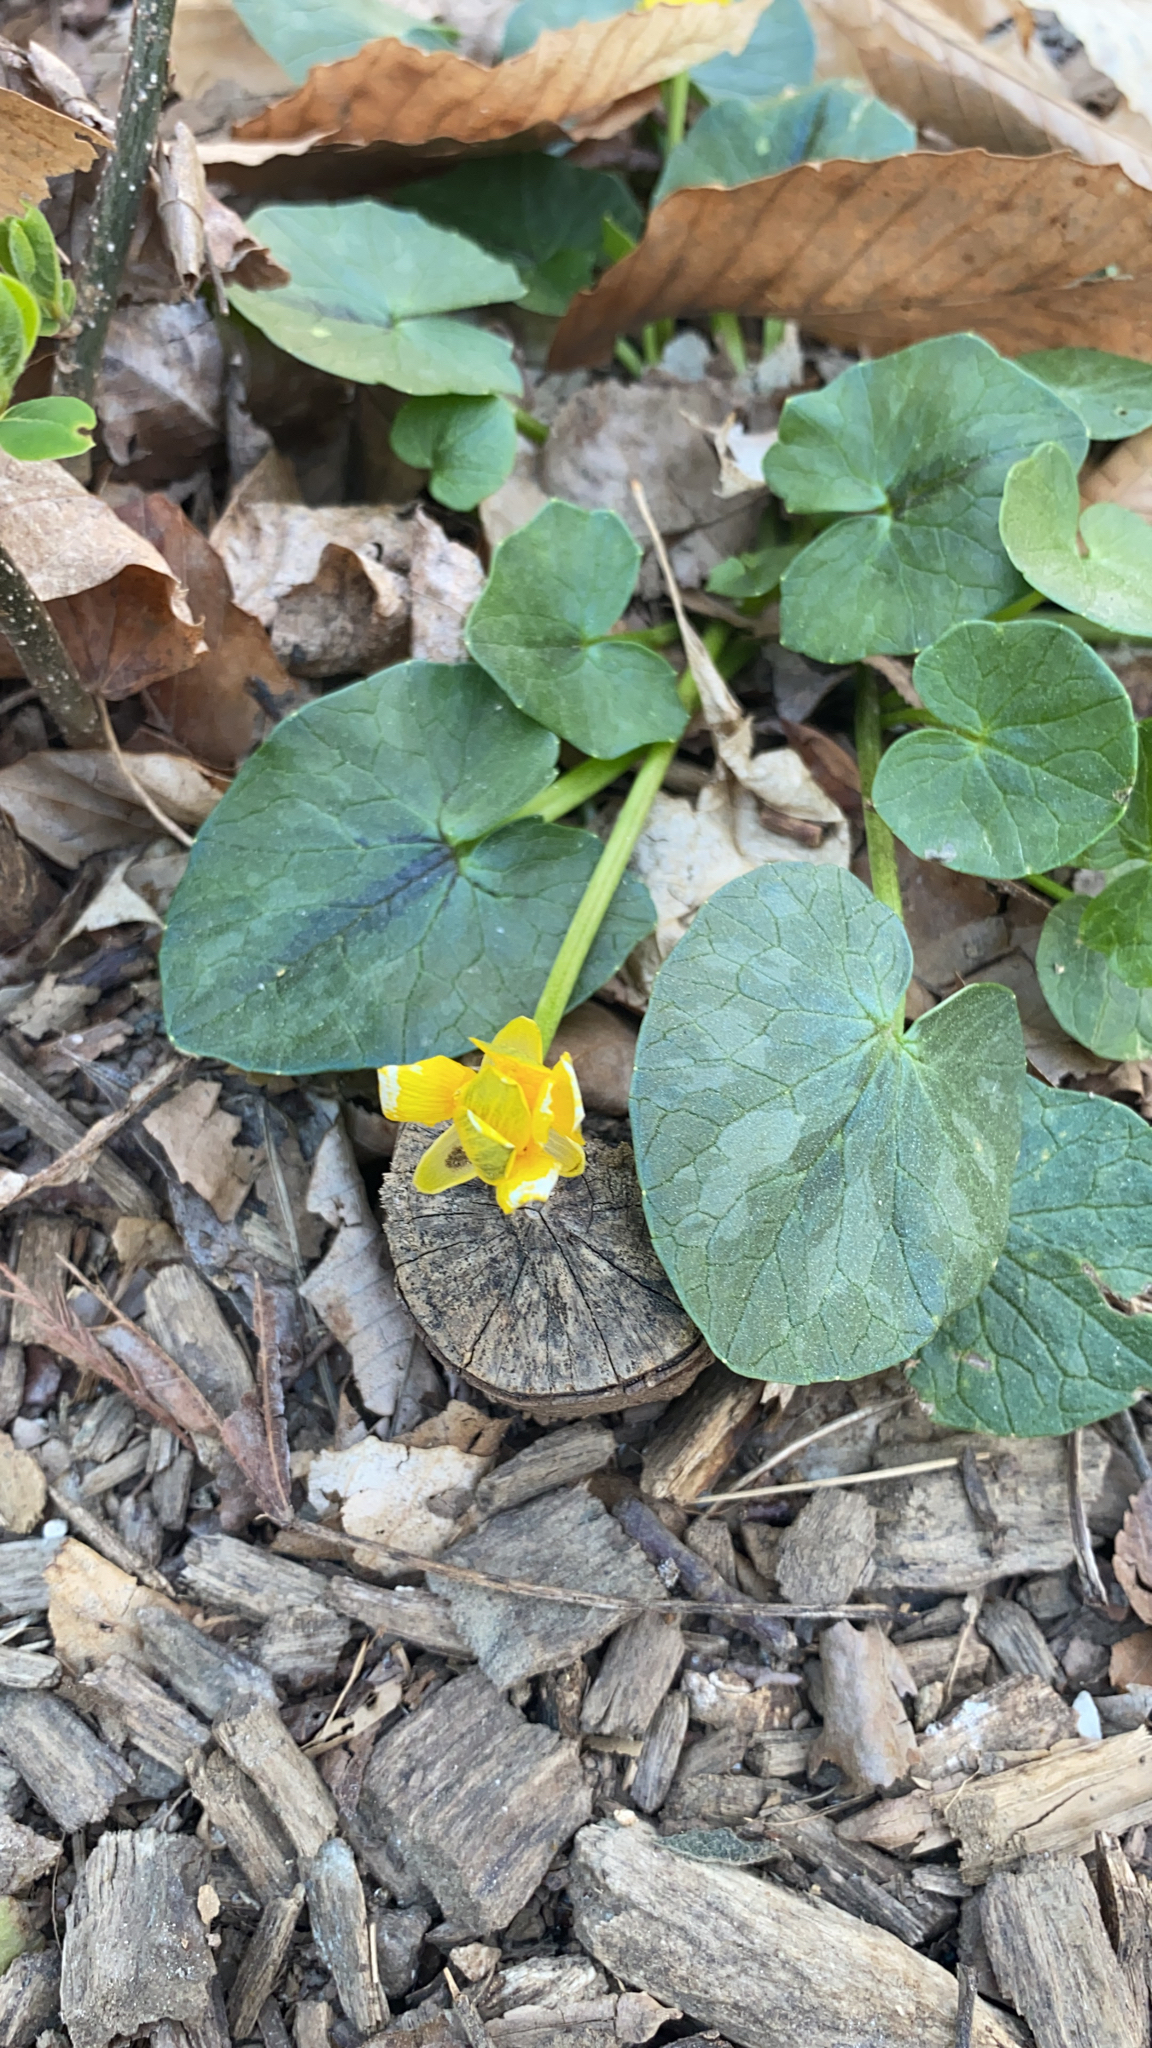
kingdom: Plantae
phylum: Tracheophyta
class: Magnoliopsida
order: Ranunculales
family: Ranunculaceae
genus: Ficaria
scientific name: Ficaria verna
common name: Lesser celandine
